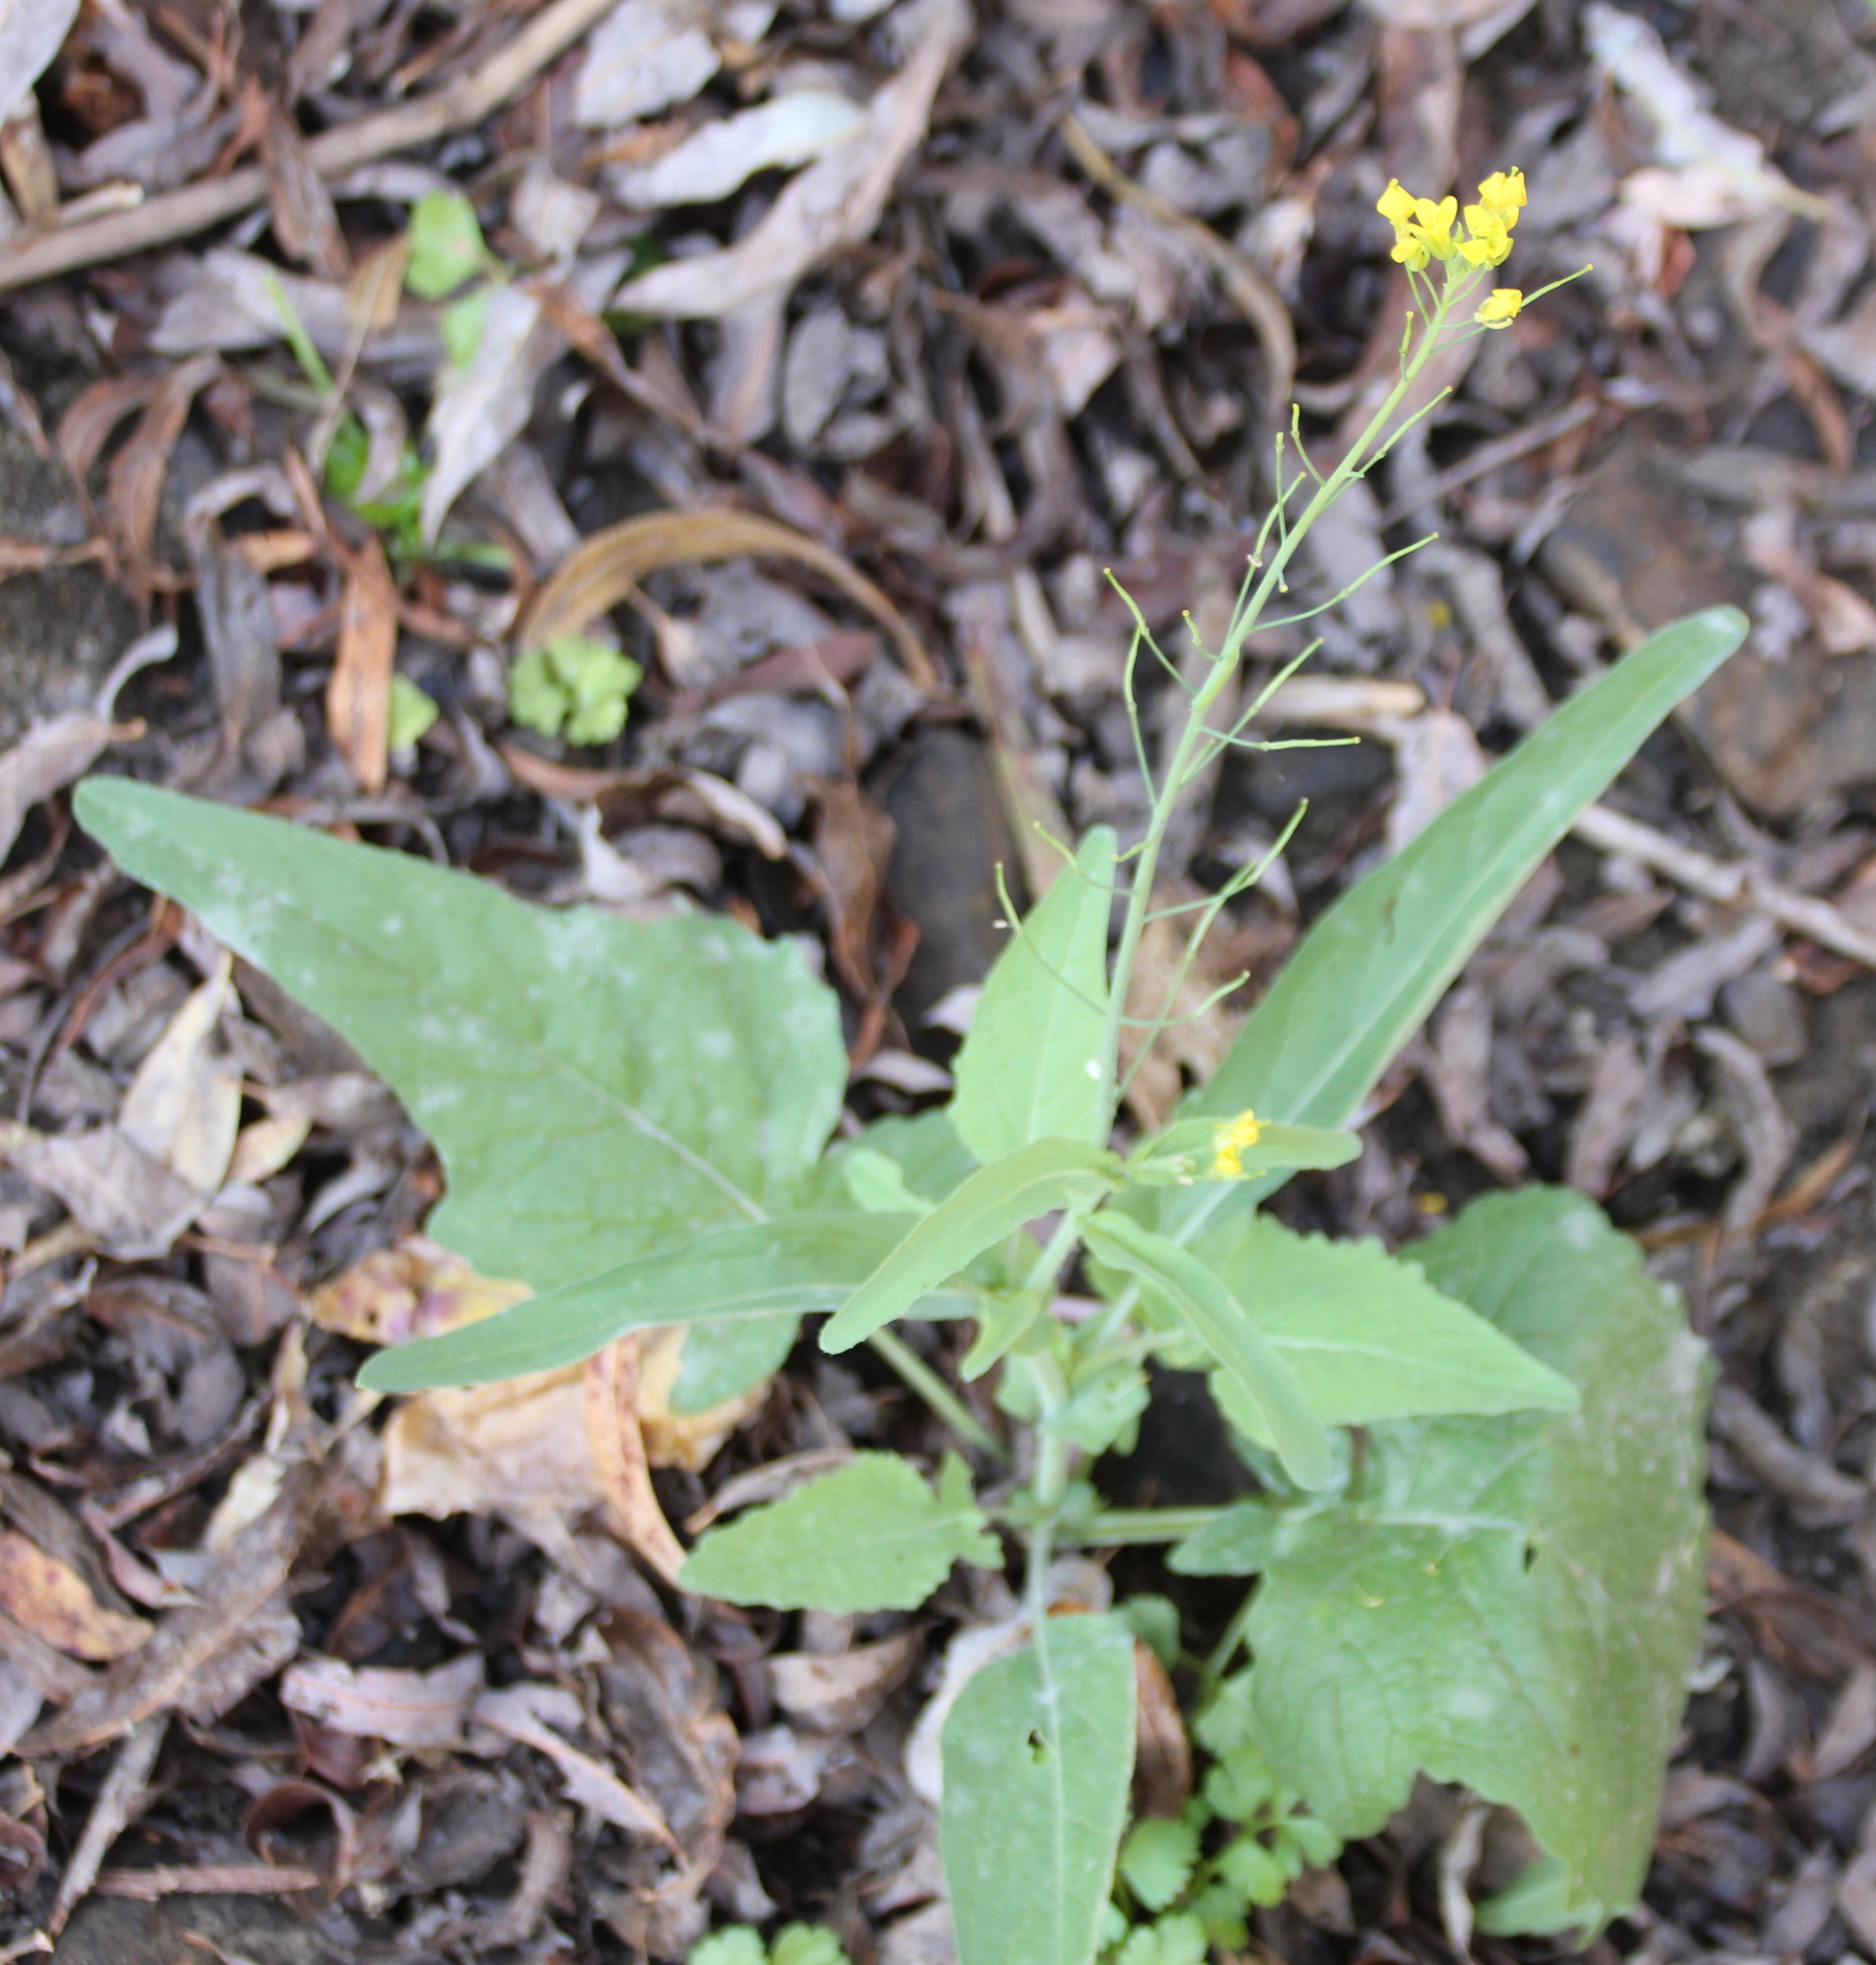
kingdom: Plantae
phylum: Tracheophyta
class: Magnoliopsida
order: Brassicales
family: Brassicaceae
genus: Brassica
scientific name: Brassica rapa
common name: Field mustard
